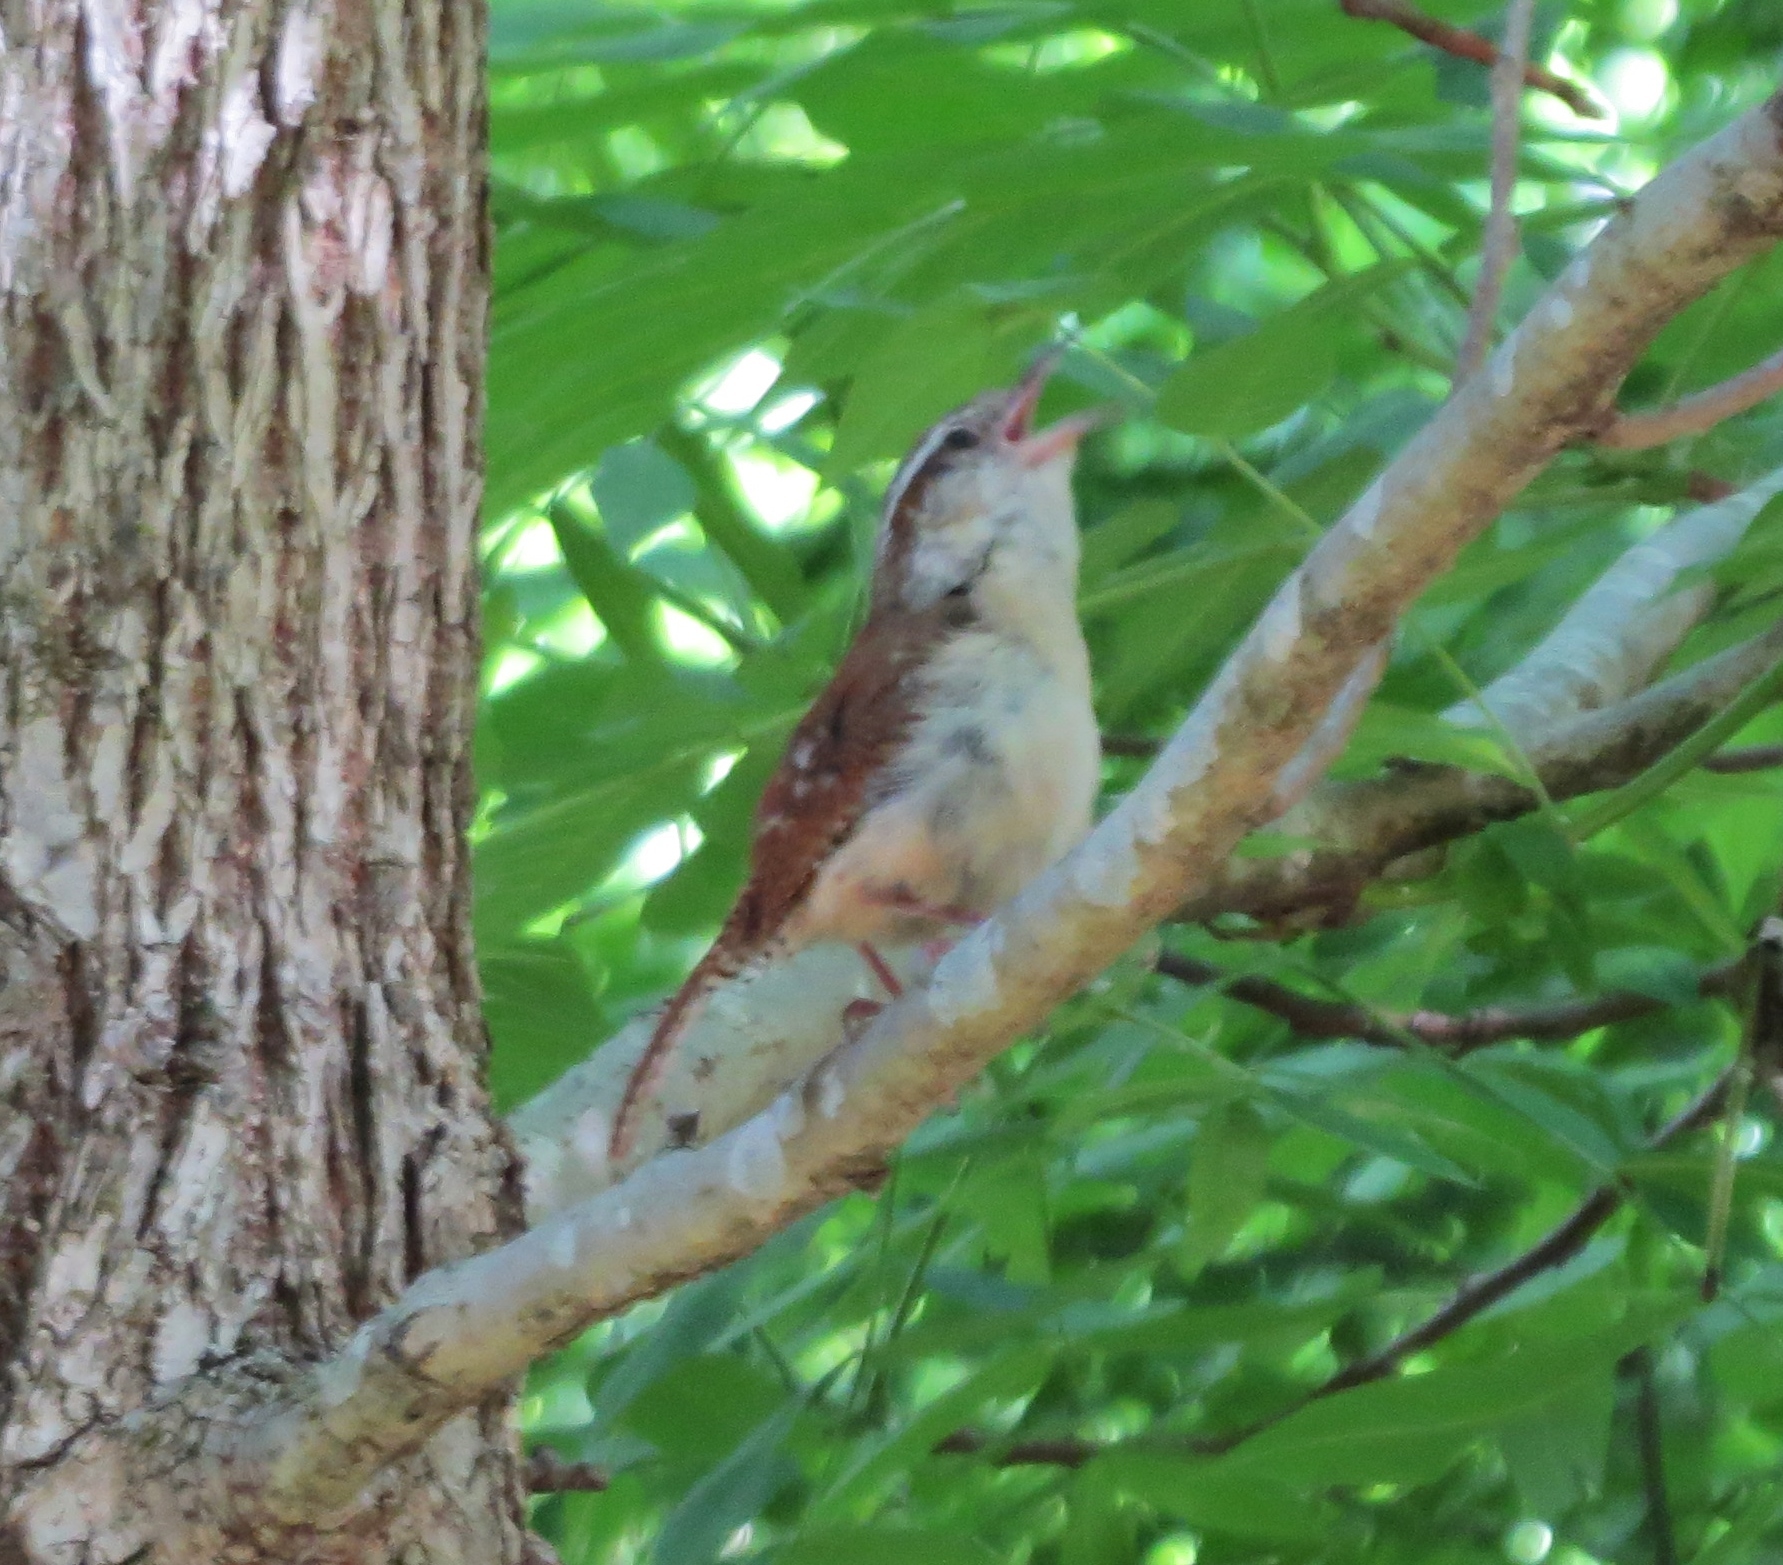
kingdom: Animalia
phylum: Chordata
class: Aves
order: Passeriformes
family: Troglodytidae
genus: Thryothorus
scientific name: Thryothorus ludovicianus
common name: Carolina wren
